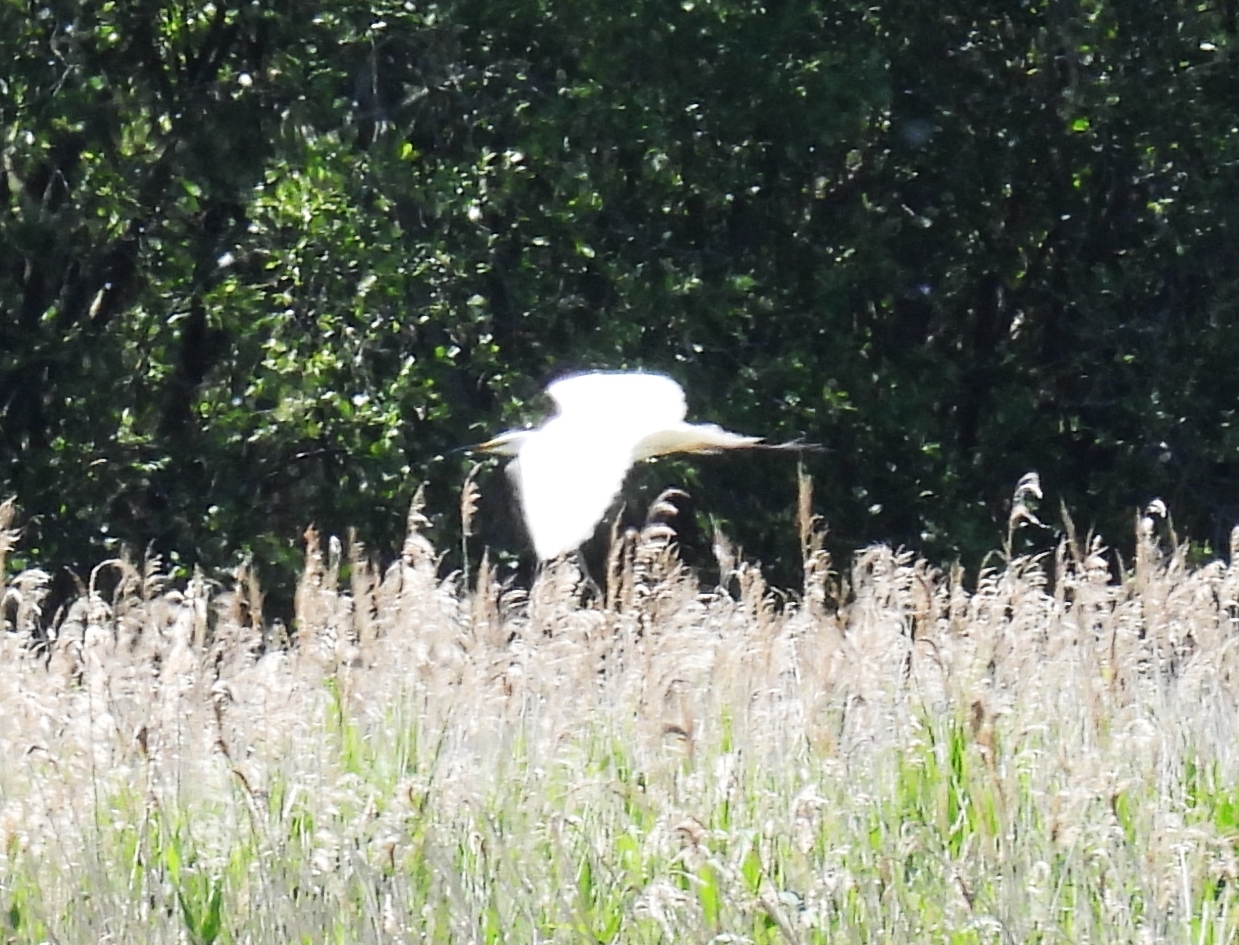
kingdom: Animalia
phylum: Chordata
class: Aves
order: Pelecaniformes
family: Ardeidae
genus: Ardea
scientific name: Ardea alba
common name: Great egret
